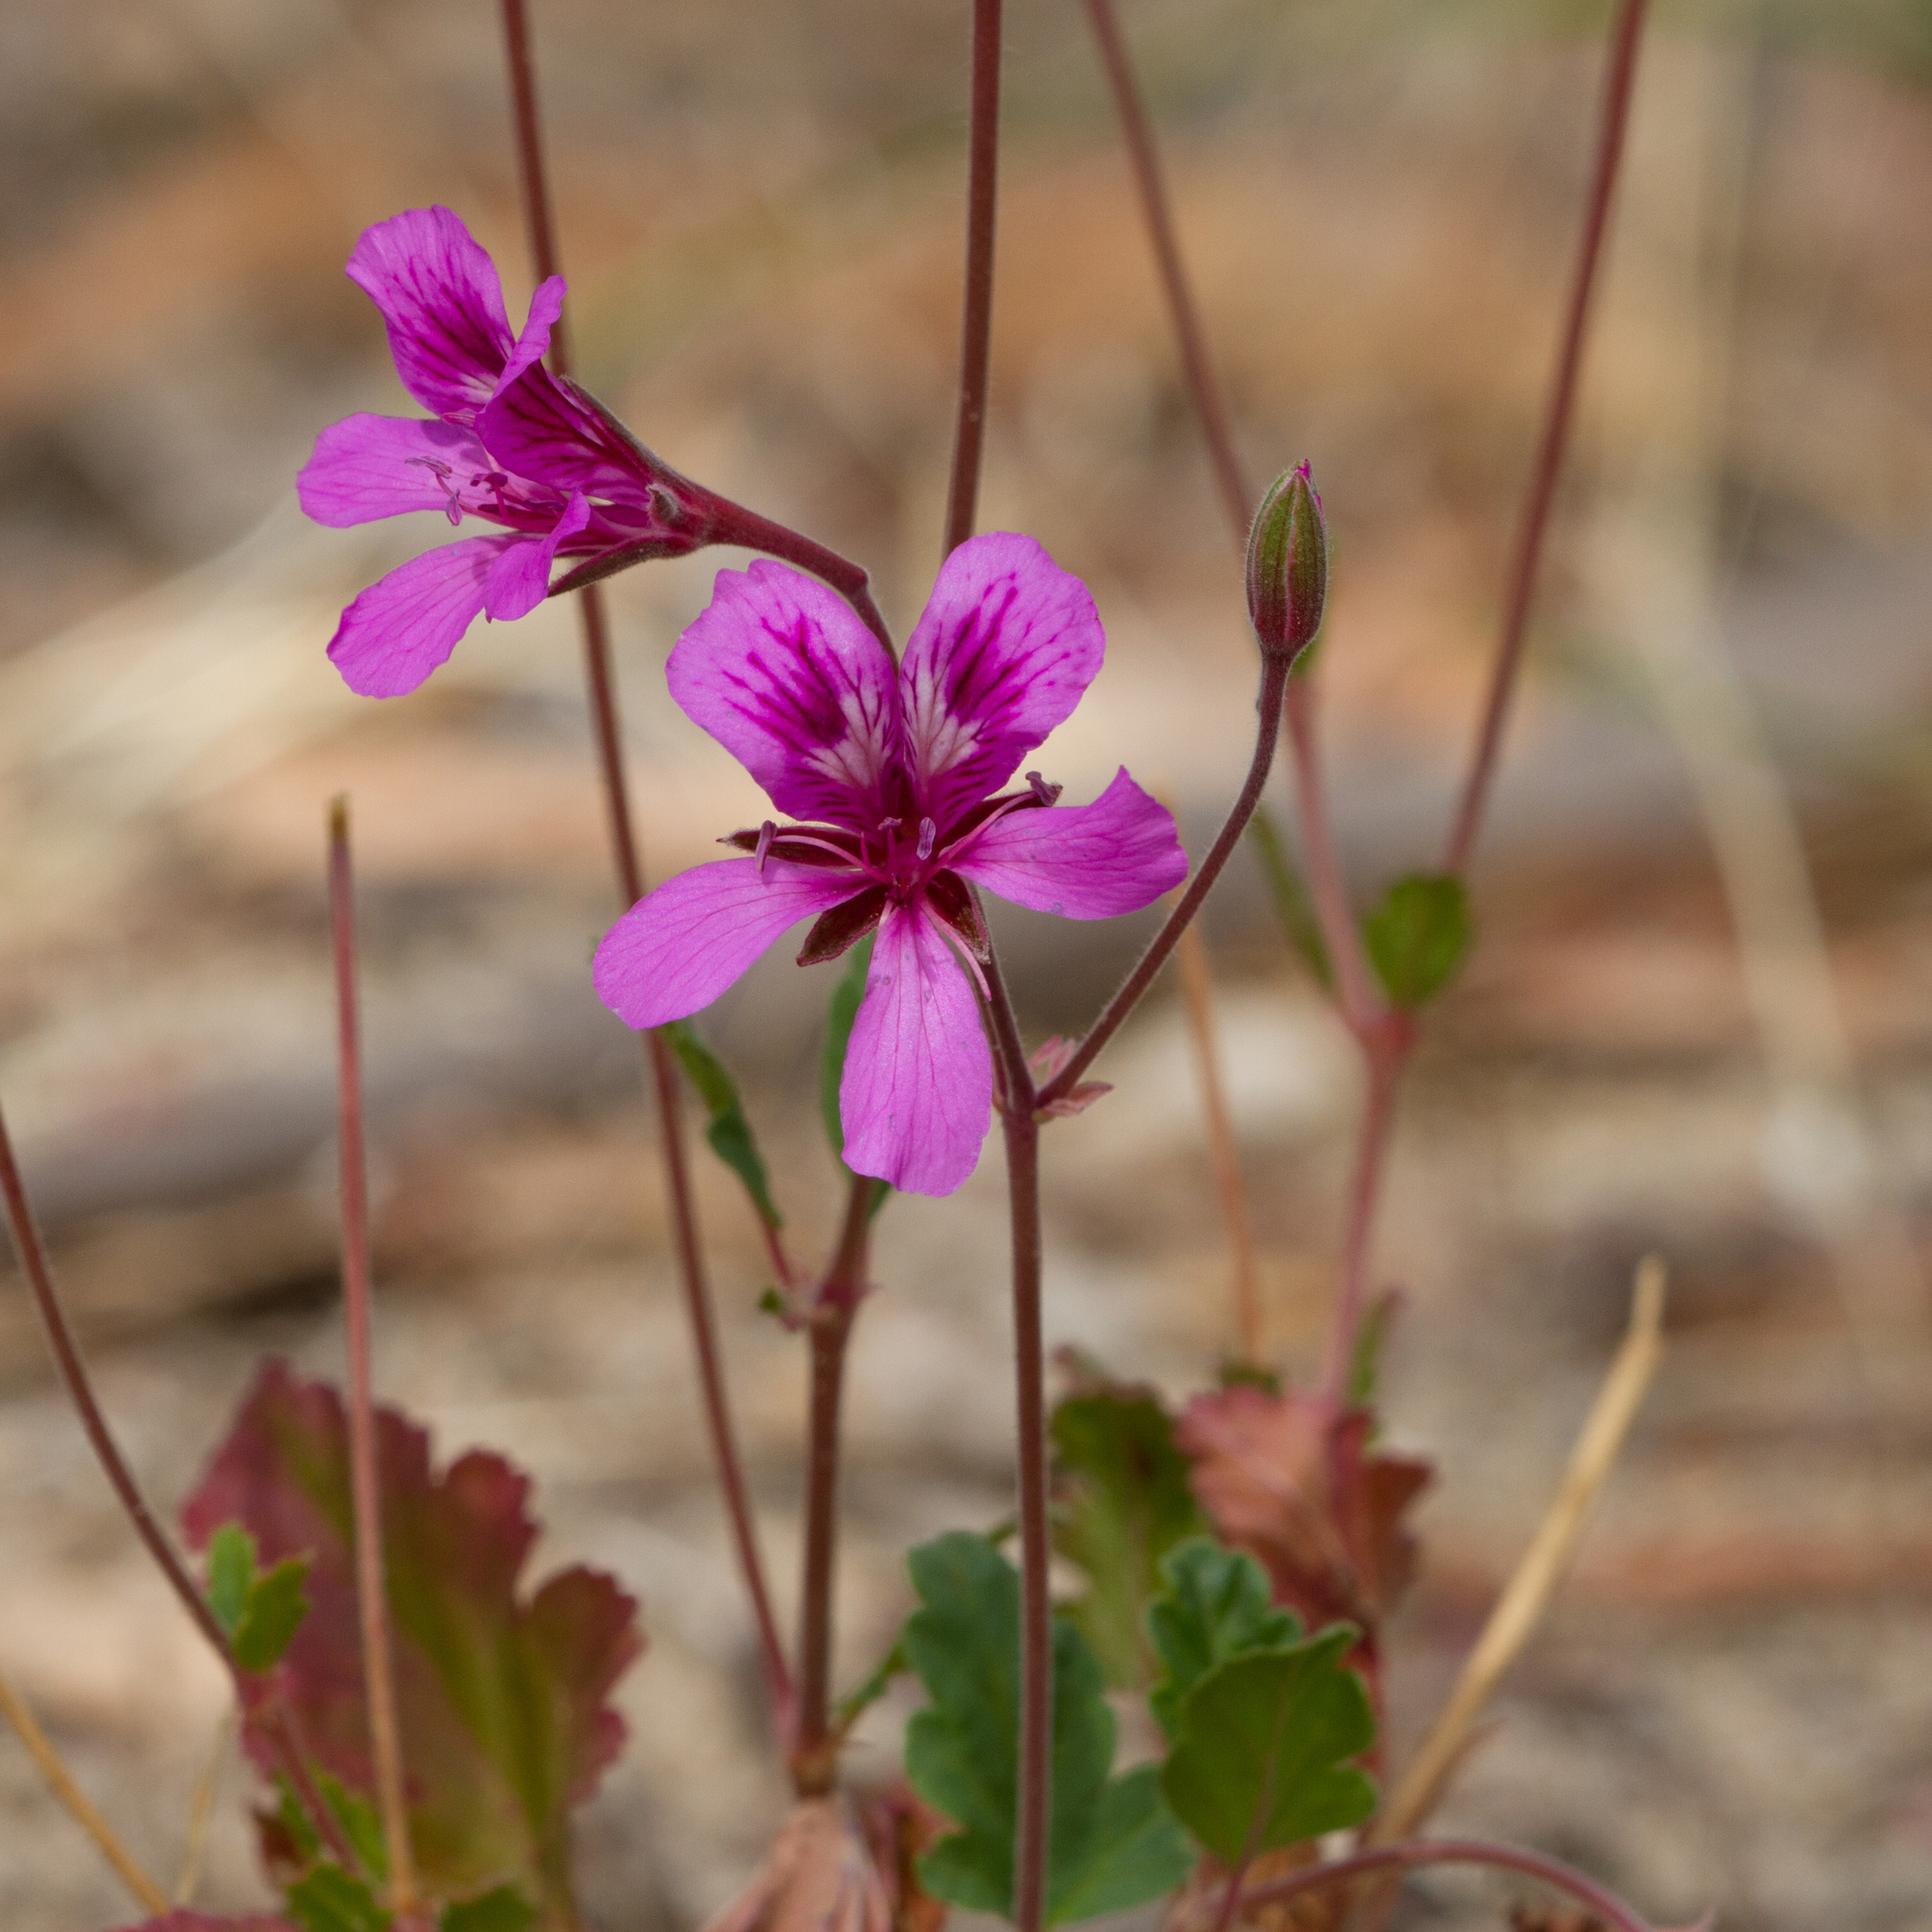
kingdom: Plantae
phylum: Tracheophyta
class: Magnoliopsida
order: Geraniales
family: Geraniaceae
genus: Pelargonium
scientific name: Pelargonium rodneyanum
